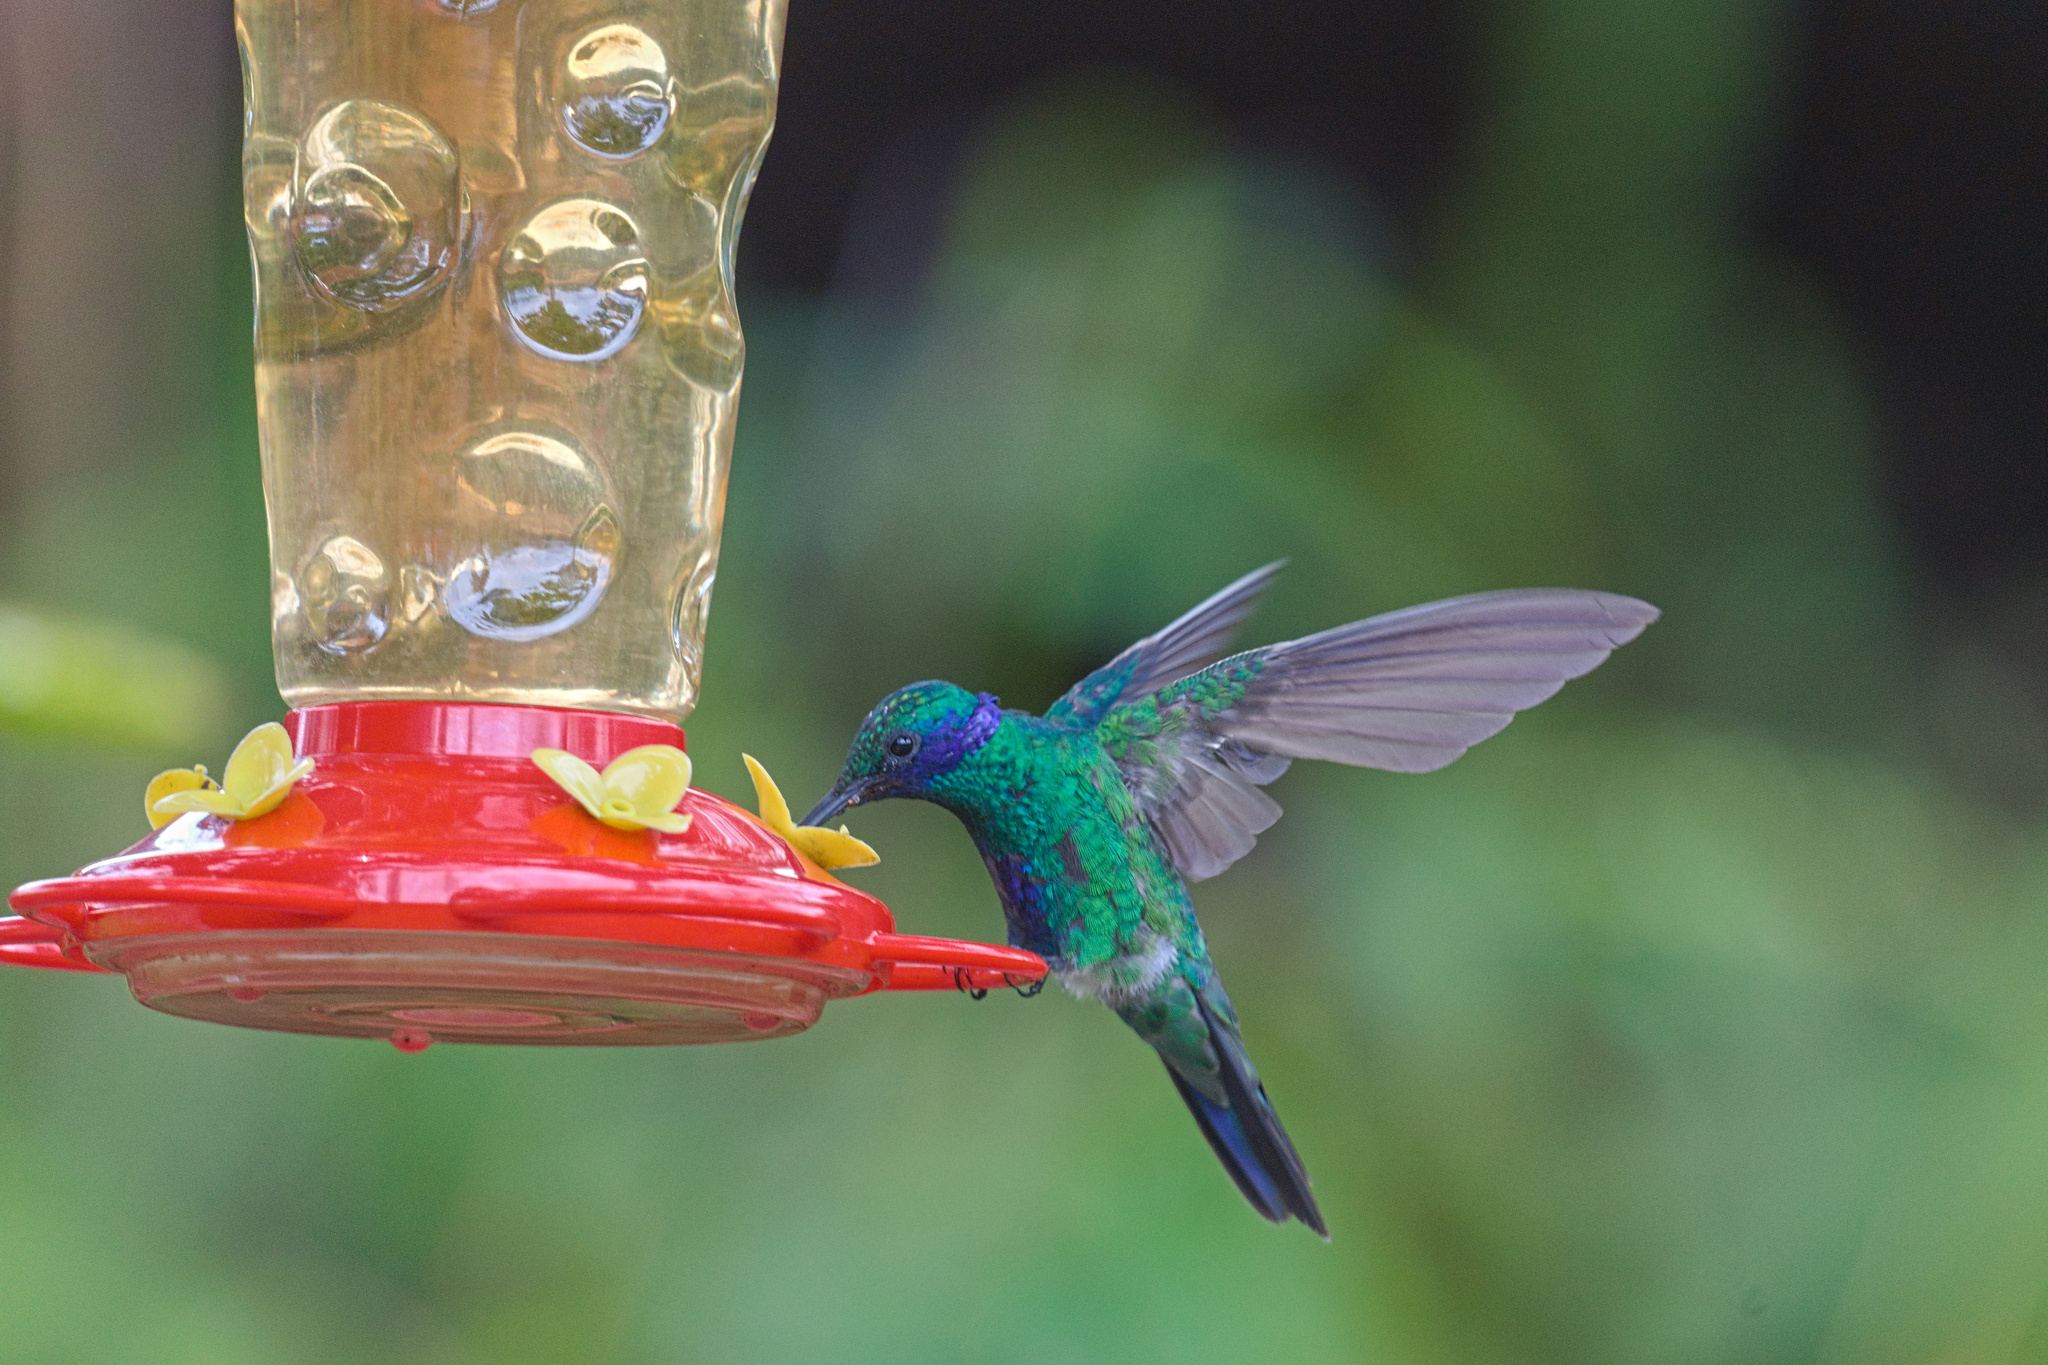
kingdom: Animalia
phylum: Chordata
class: Aves
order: Apodiformes
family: Trochilidae
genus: Colibri
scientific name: Colibri coruscans
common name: Sparkling violetear
